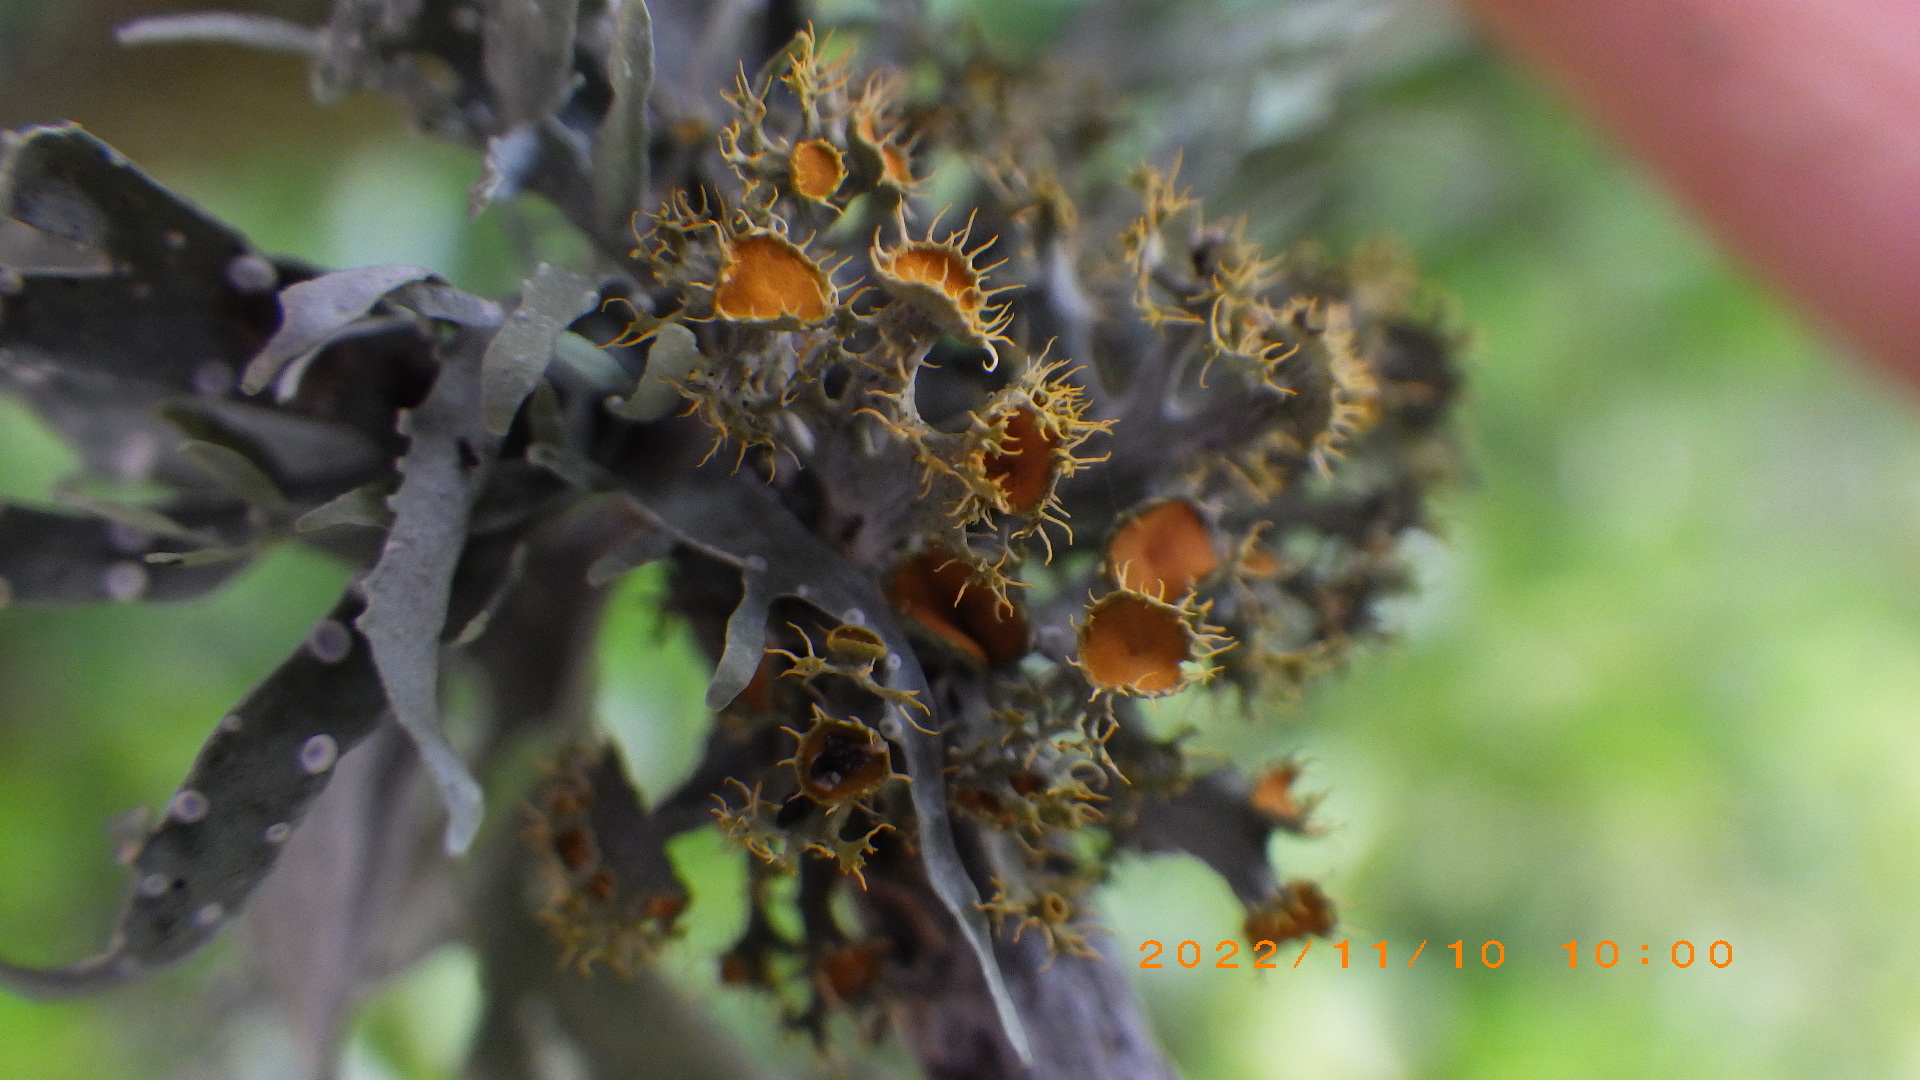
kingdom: Fungi
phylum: Ascomycota
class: Lecanoromycetes
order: Teloschistales
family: Teloschistaceae
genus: Niorma
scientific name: Niorma chrysophthalma
